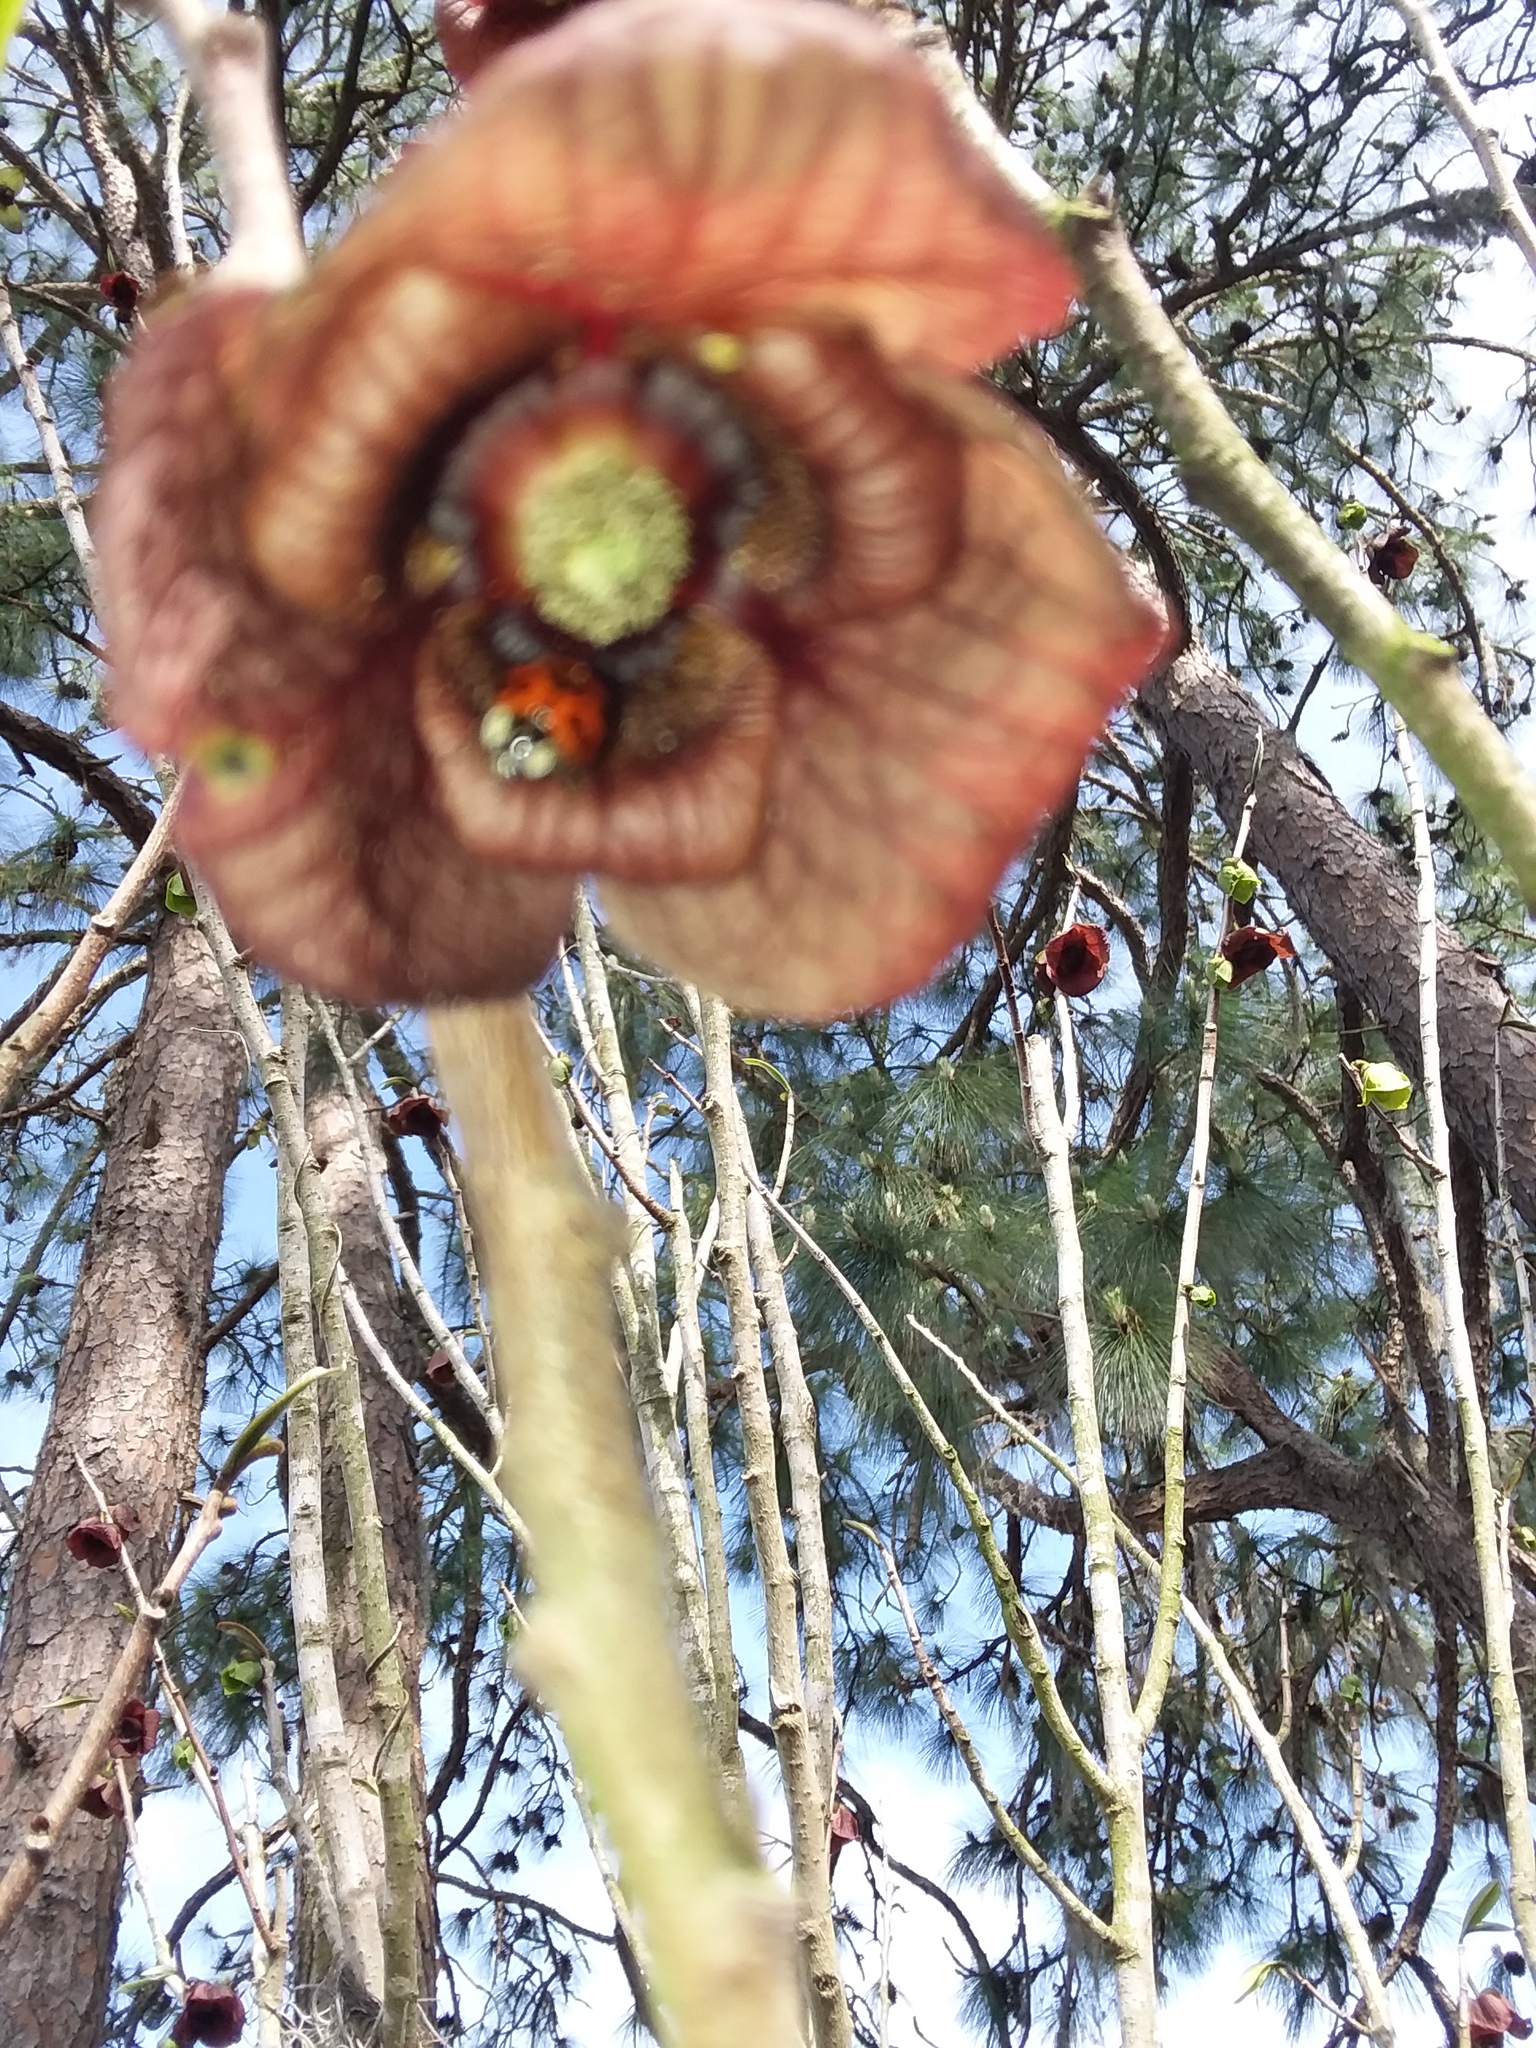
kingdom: Animalia
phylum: Arthropoda
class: Insecta
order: Coleoptera
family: Coccinellidae
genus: Harmonia
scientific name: Harmonia axyridis
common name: Harlequin ladybird
